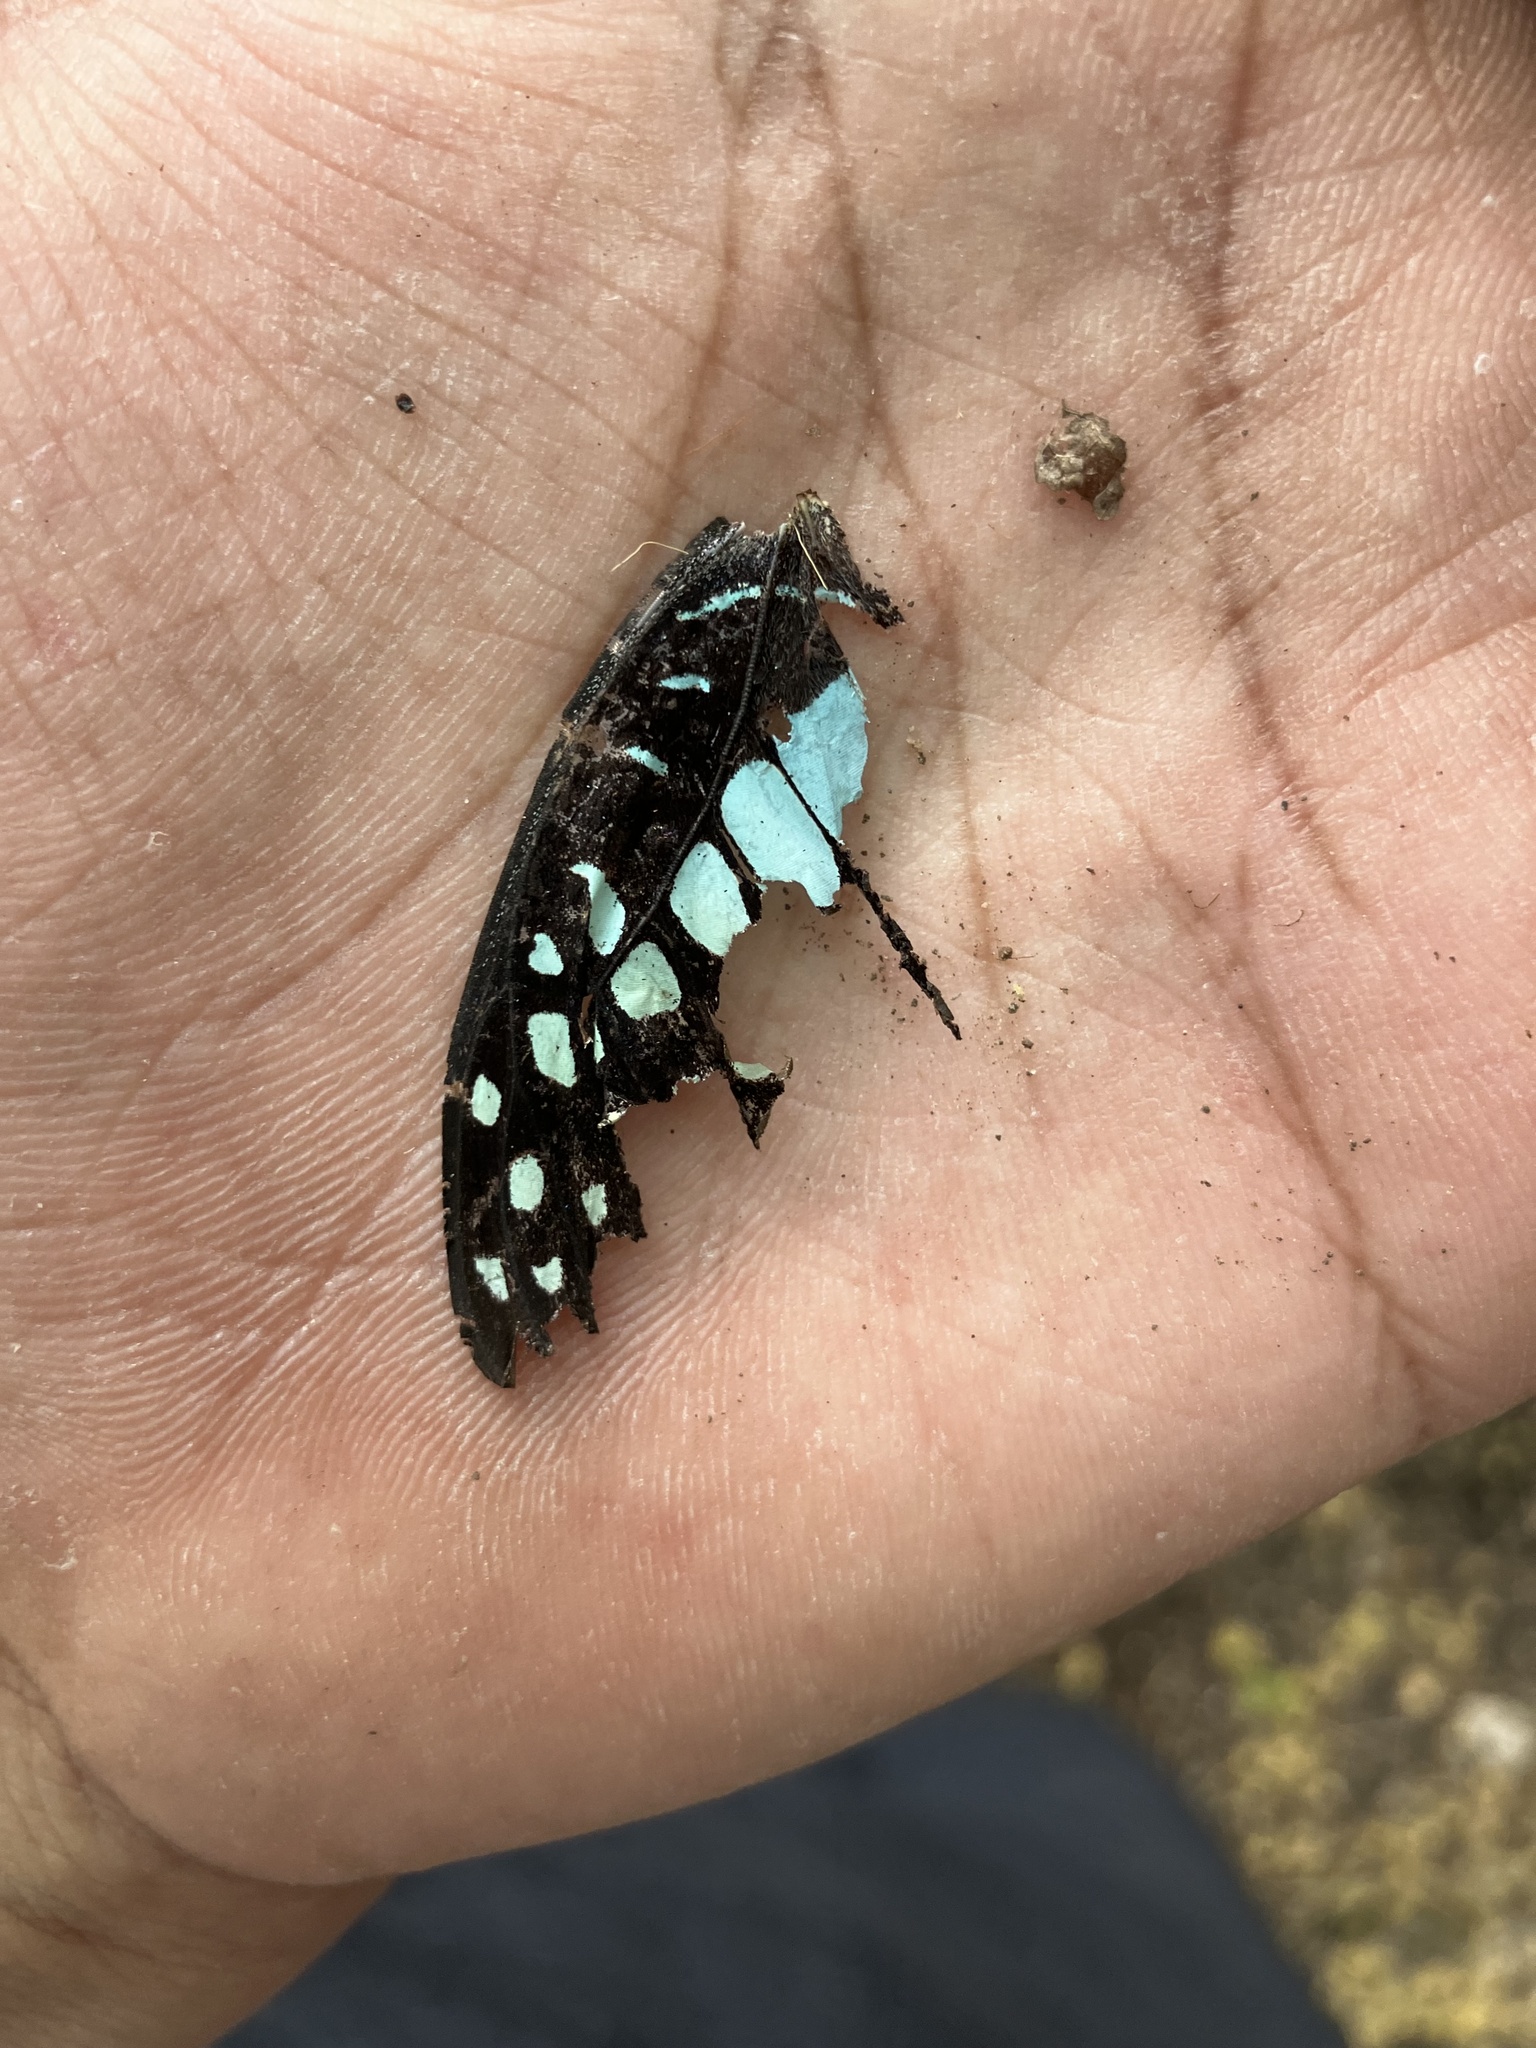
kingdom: Animalia
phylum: Arthropoda
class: Insecta
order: Lepidoptera
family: Papilionidae
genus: Graphium
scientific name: Graphium doson
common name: Common jay
